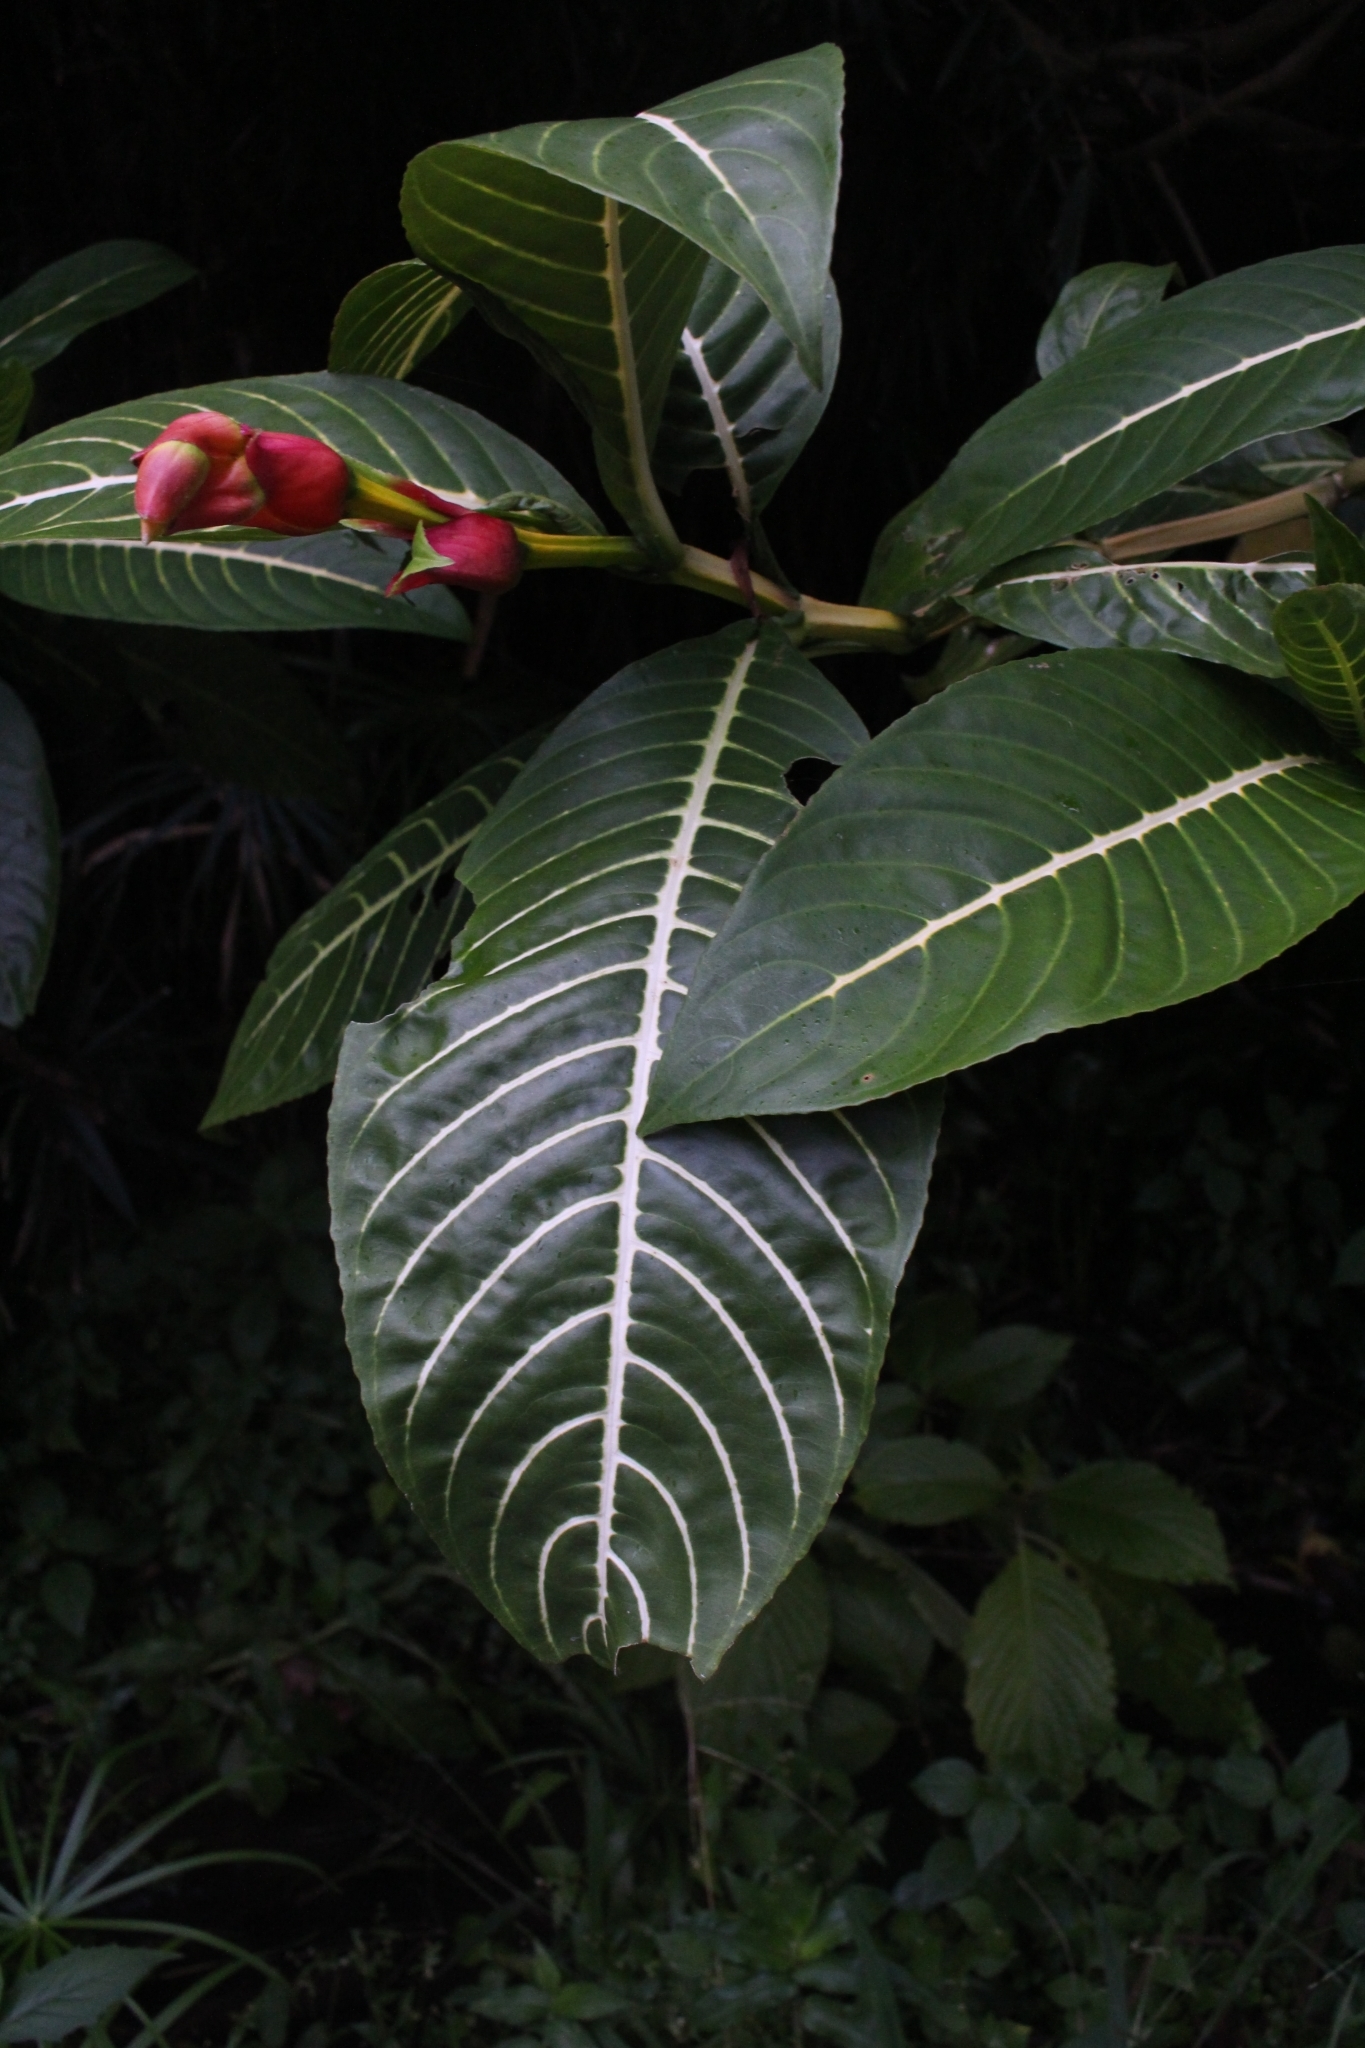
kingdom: Plantae
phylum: Tracheophyta
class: Magnoliopsida
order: Lamiales
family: Acanthaceae
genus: Sanchezia
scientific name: Sanchezia oblonga
